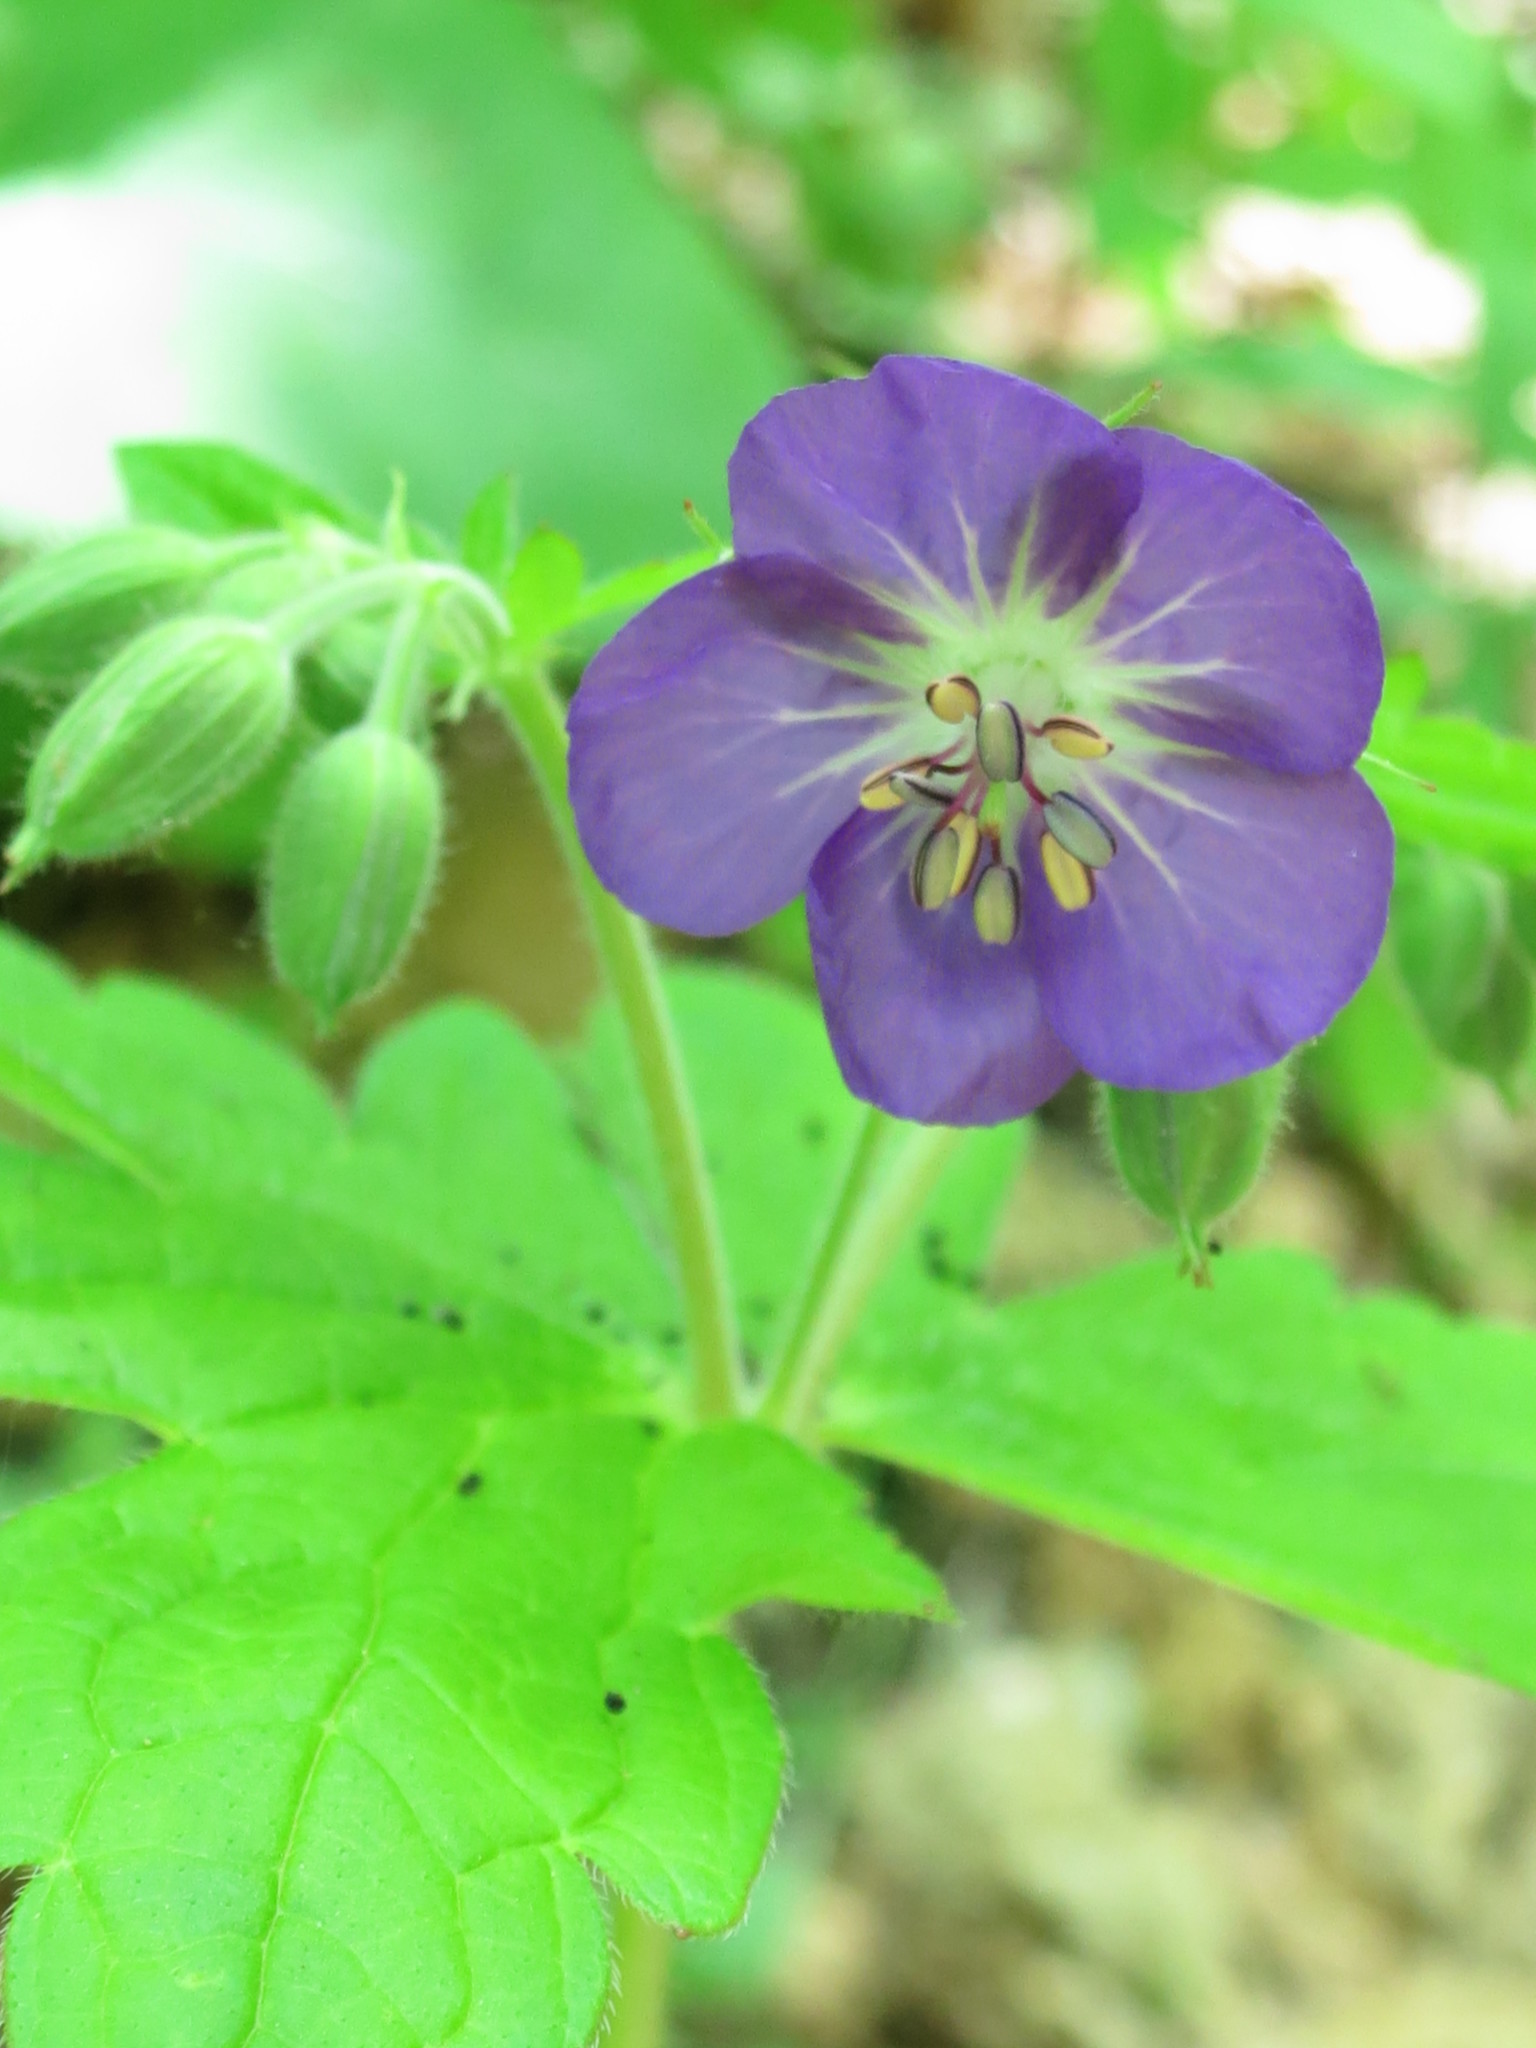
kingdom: Plantae
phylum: Tracheophyta
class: Magnoliopsida
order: Geraniales
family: Geraniaceae
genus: Geranium
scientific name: Geranium platyanthum
